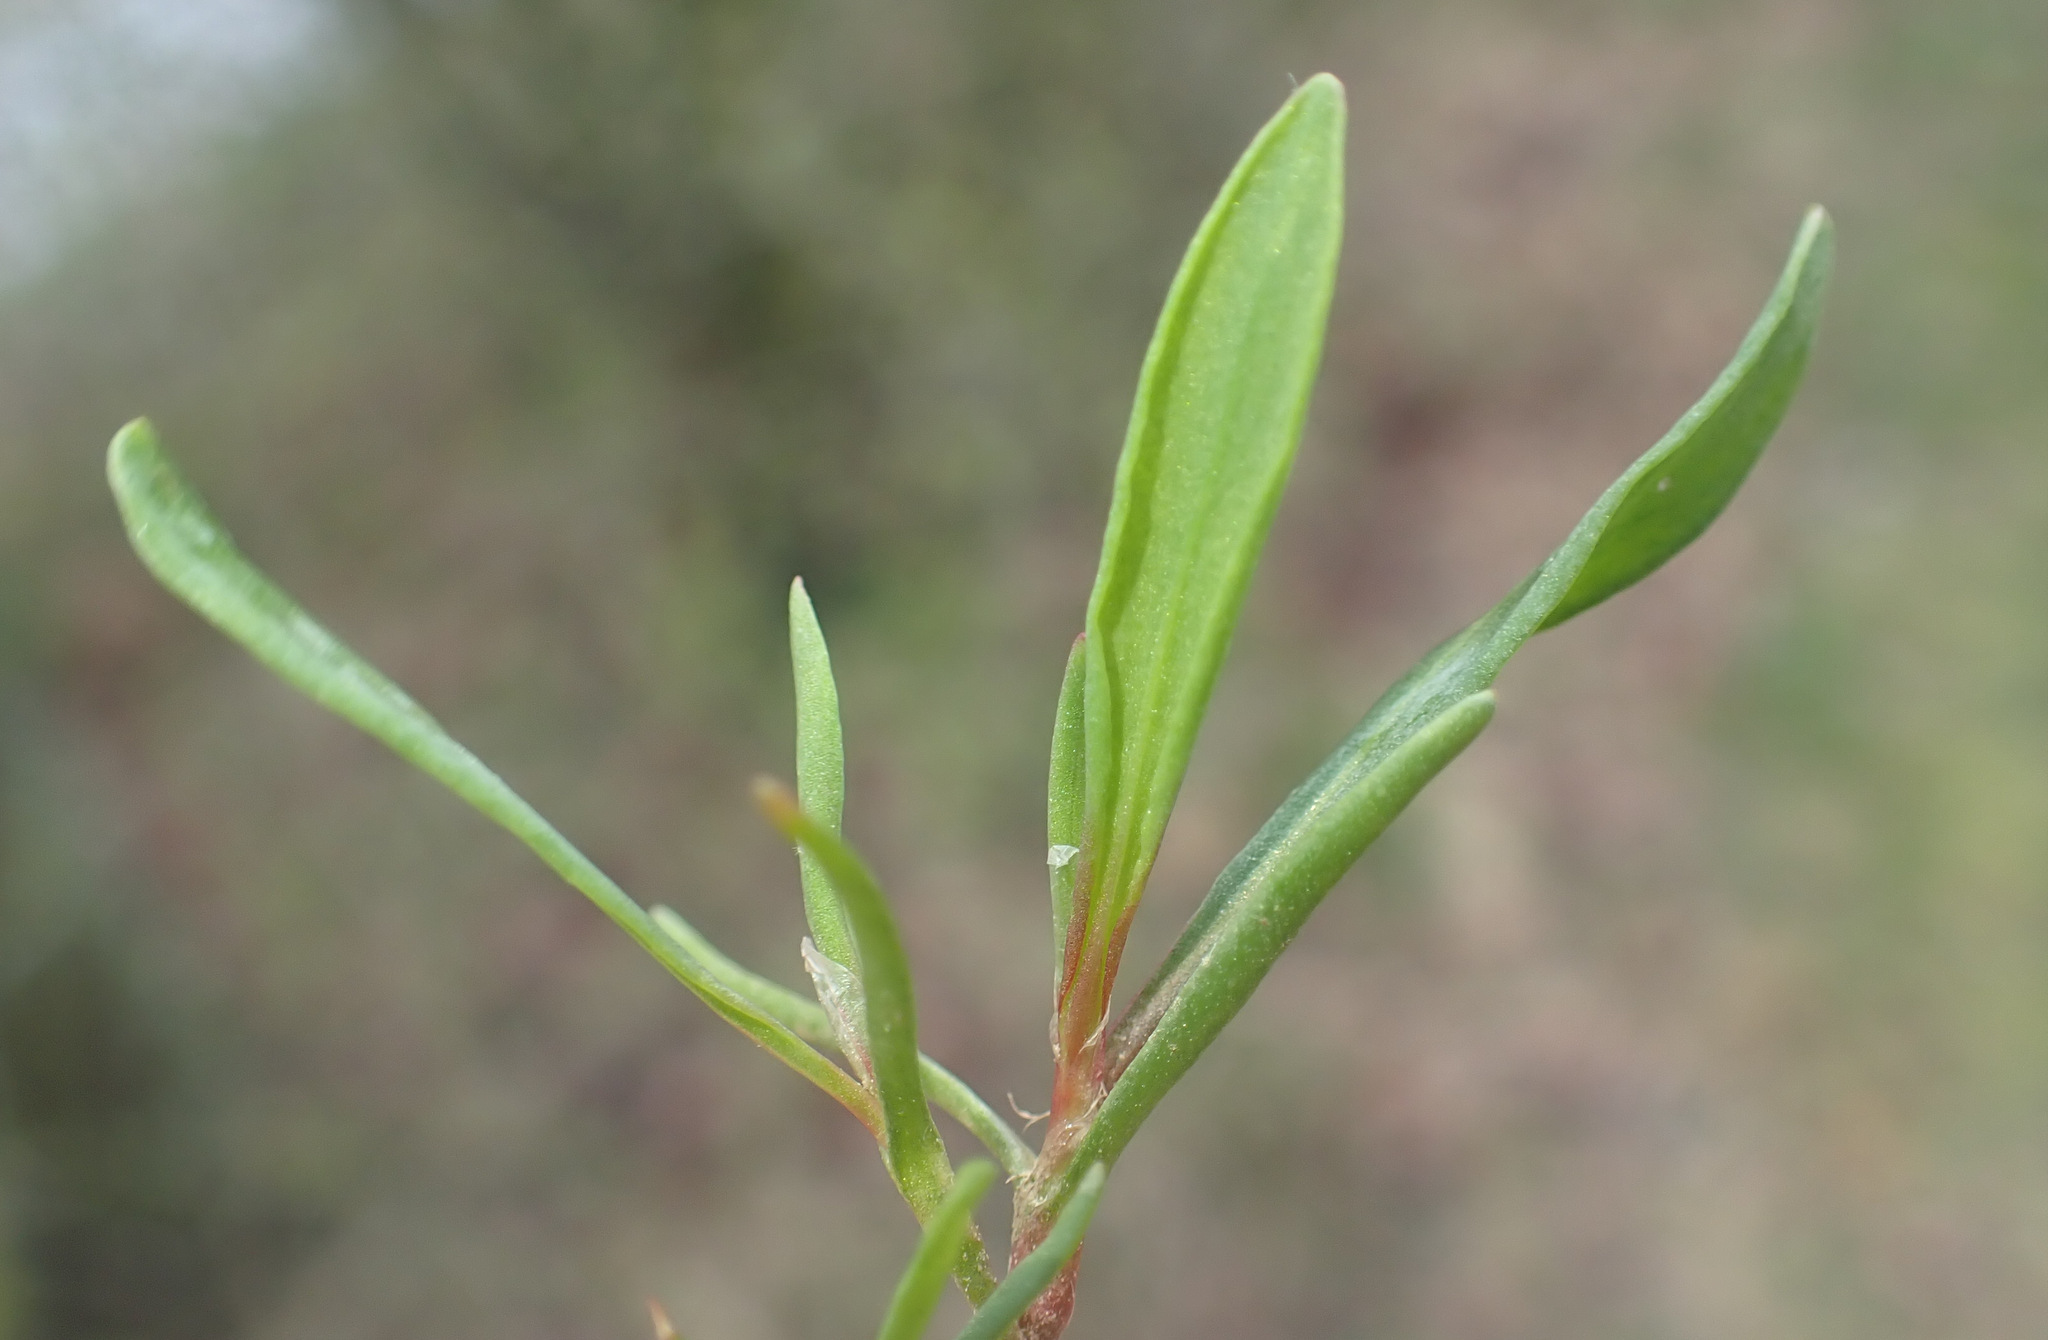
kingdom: Plantae
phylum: Tracheophyta
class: Magnoliopsida
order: Caryophyllales
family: Polygonaceae
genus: Polygonum
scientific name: Polygonum aviculare
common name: Prostrate knotweed
